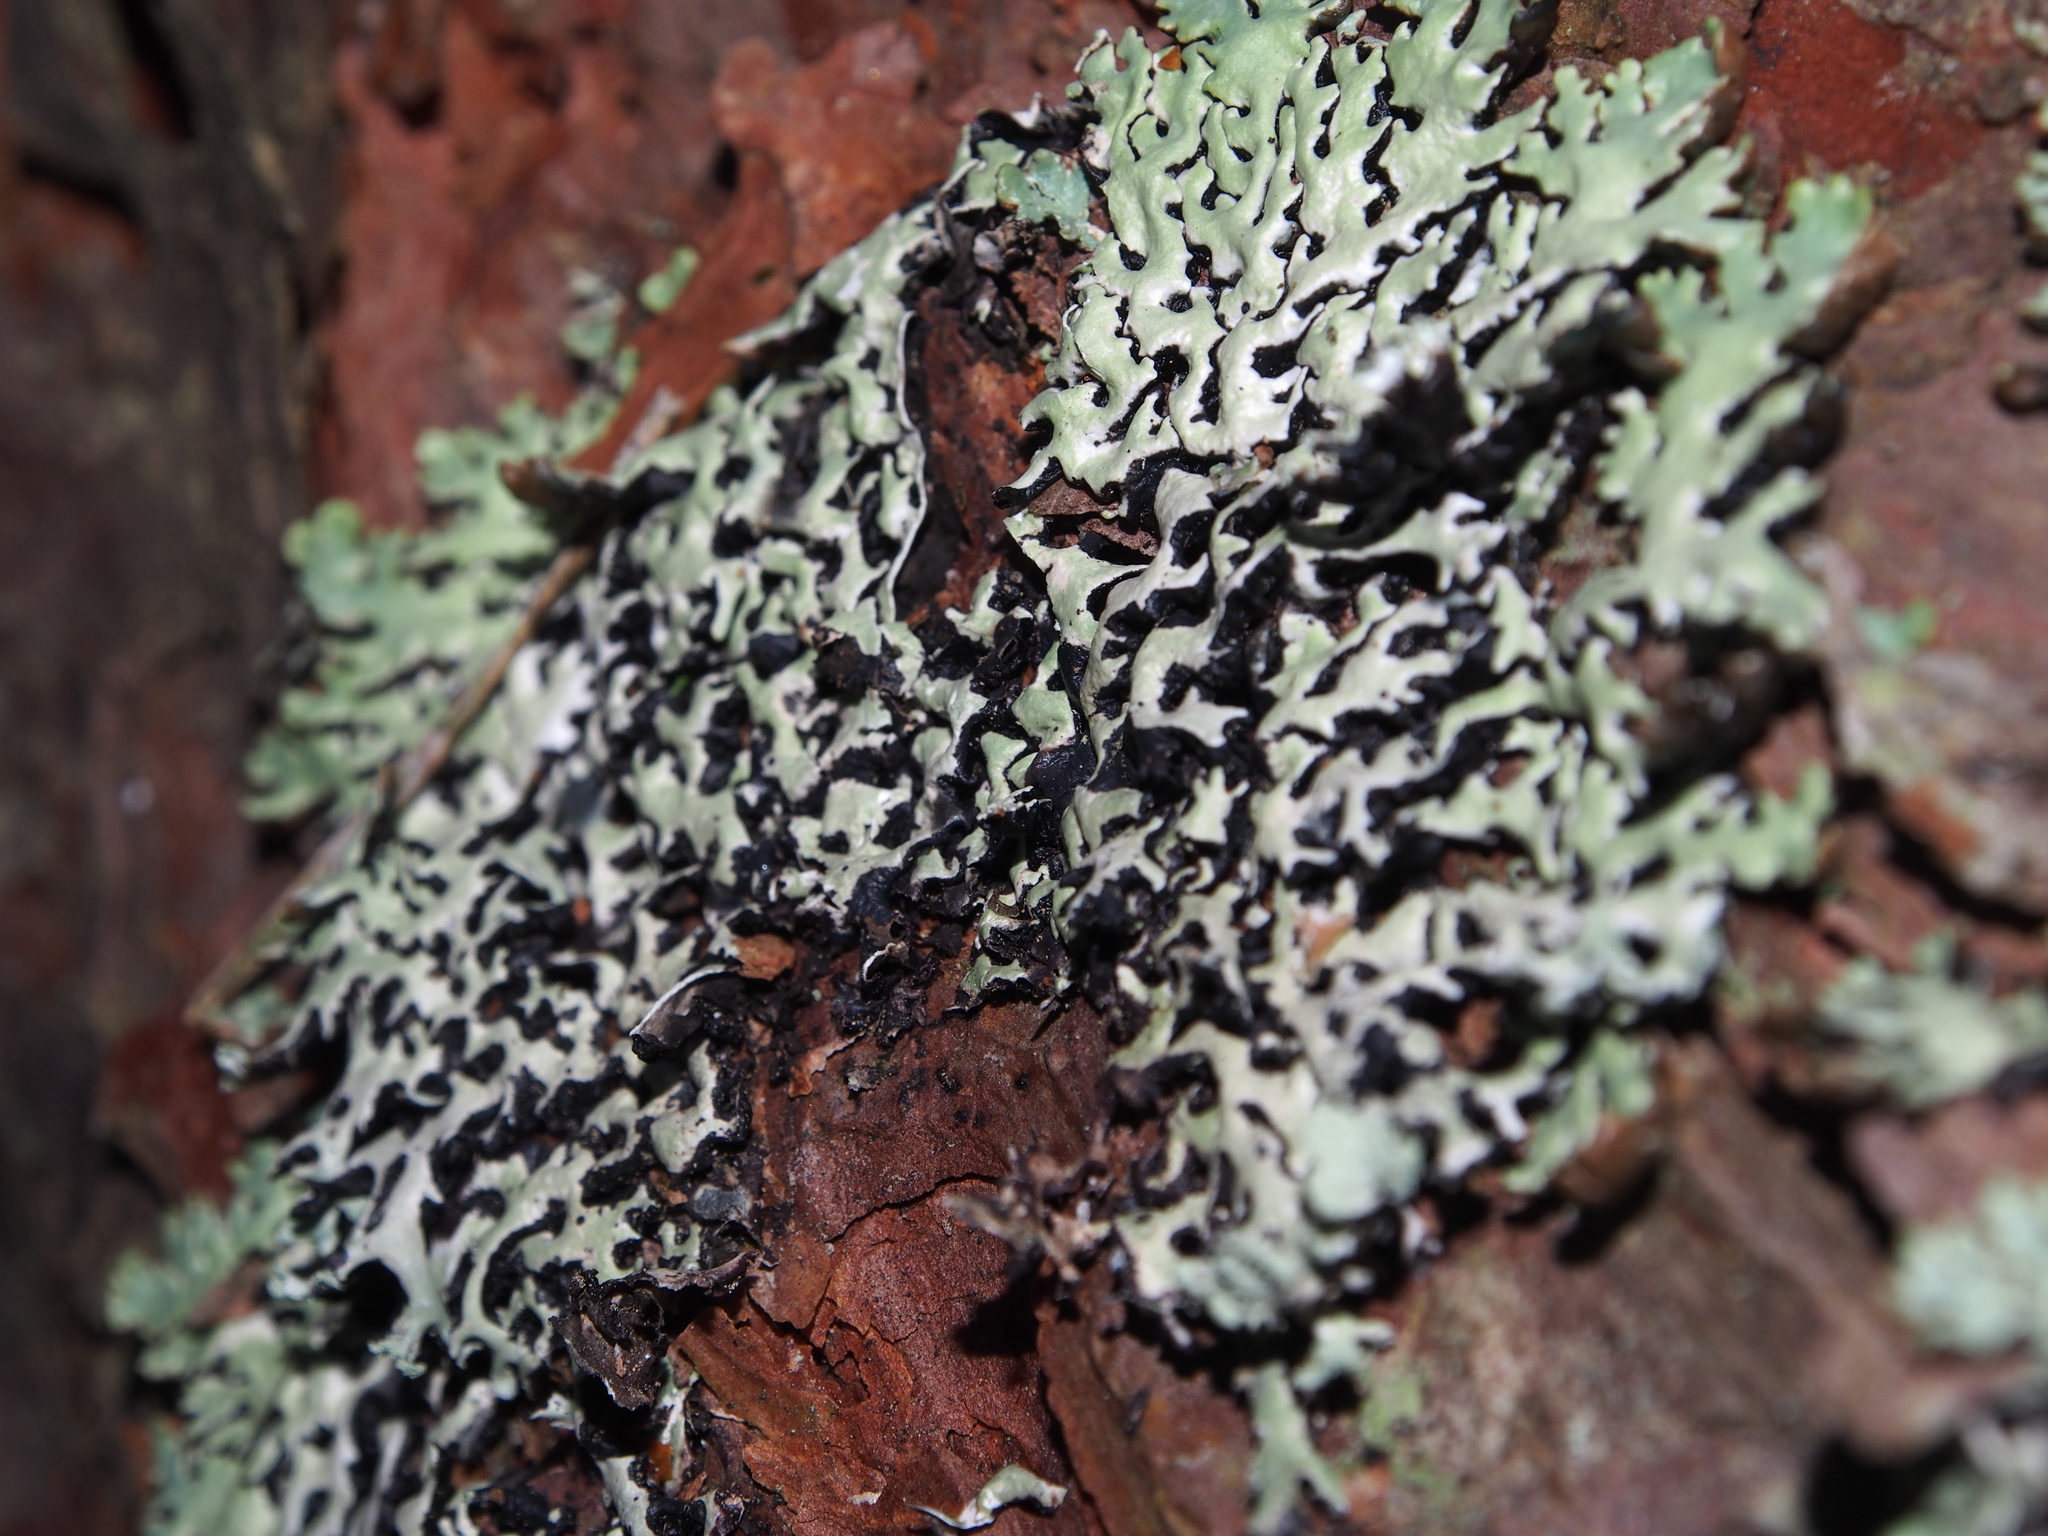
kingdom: Fungi
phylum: Ascomycota
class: Lecanoromycetes
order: Lecanorales
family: Parmeliaceae
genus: Hypogymnia
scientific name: Hypogymnia physodes
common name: Dark crottle
